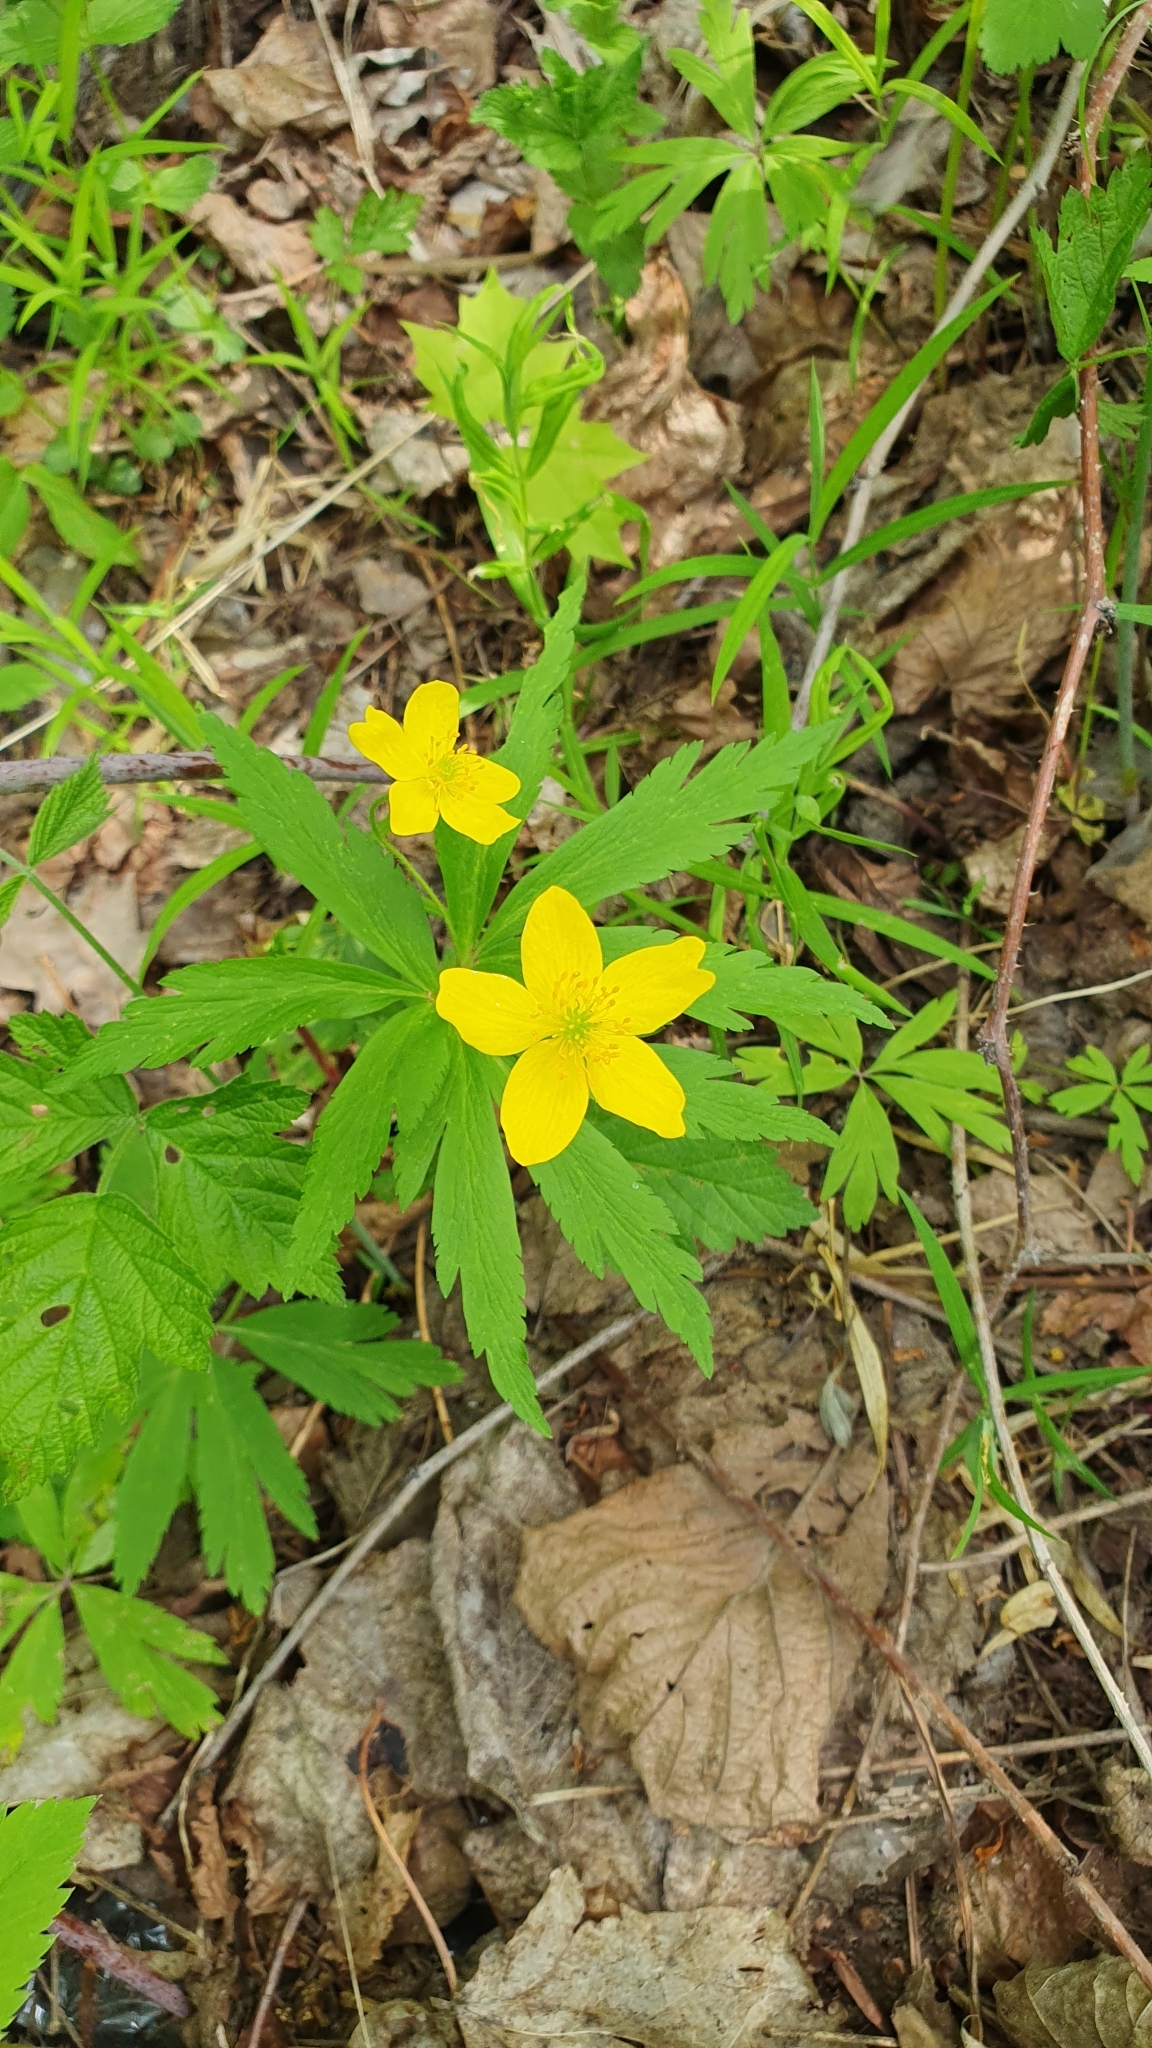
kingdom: Plantae
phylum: Tracheophyta
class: Magnoliopsida
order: Ranunculales
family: Ranunculaceae
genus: Anemone
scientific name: Anemone ranunculoides
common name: Yellow anemone
